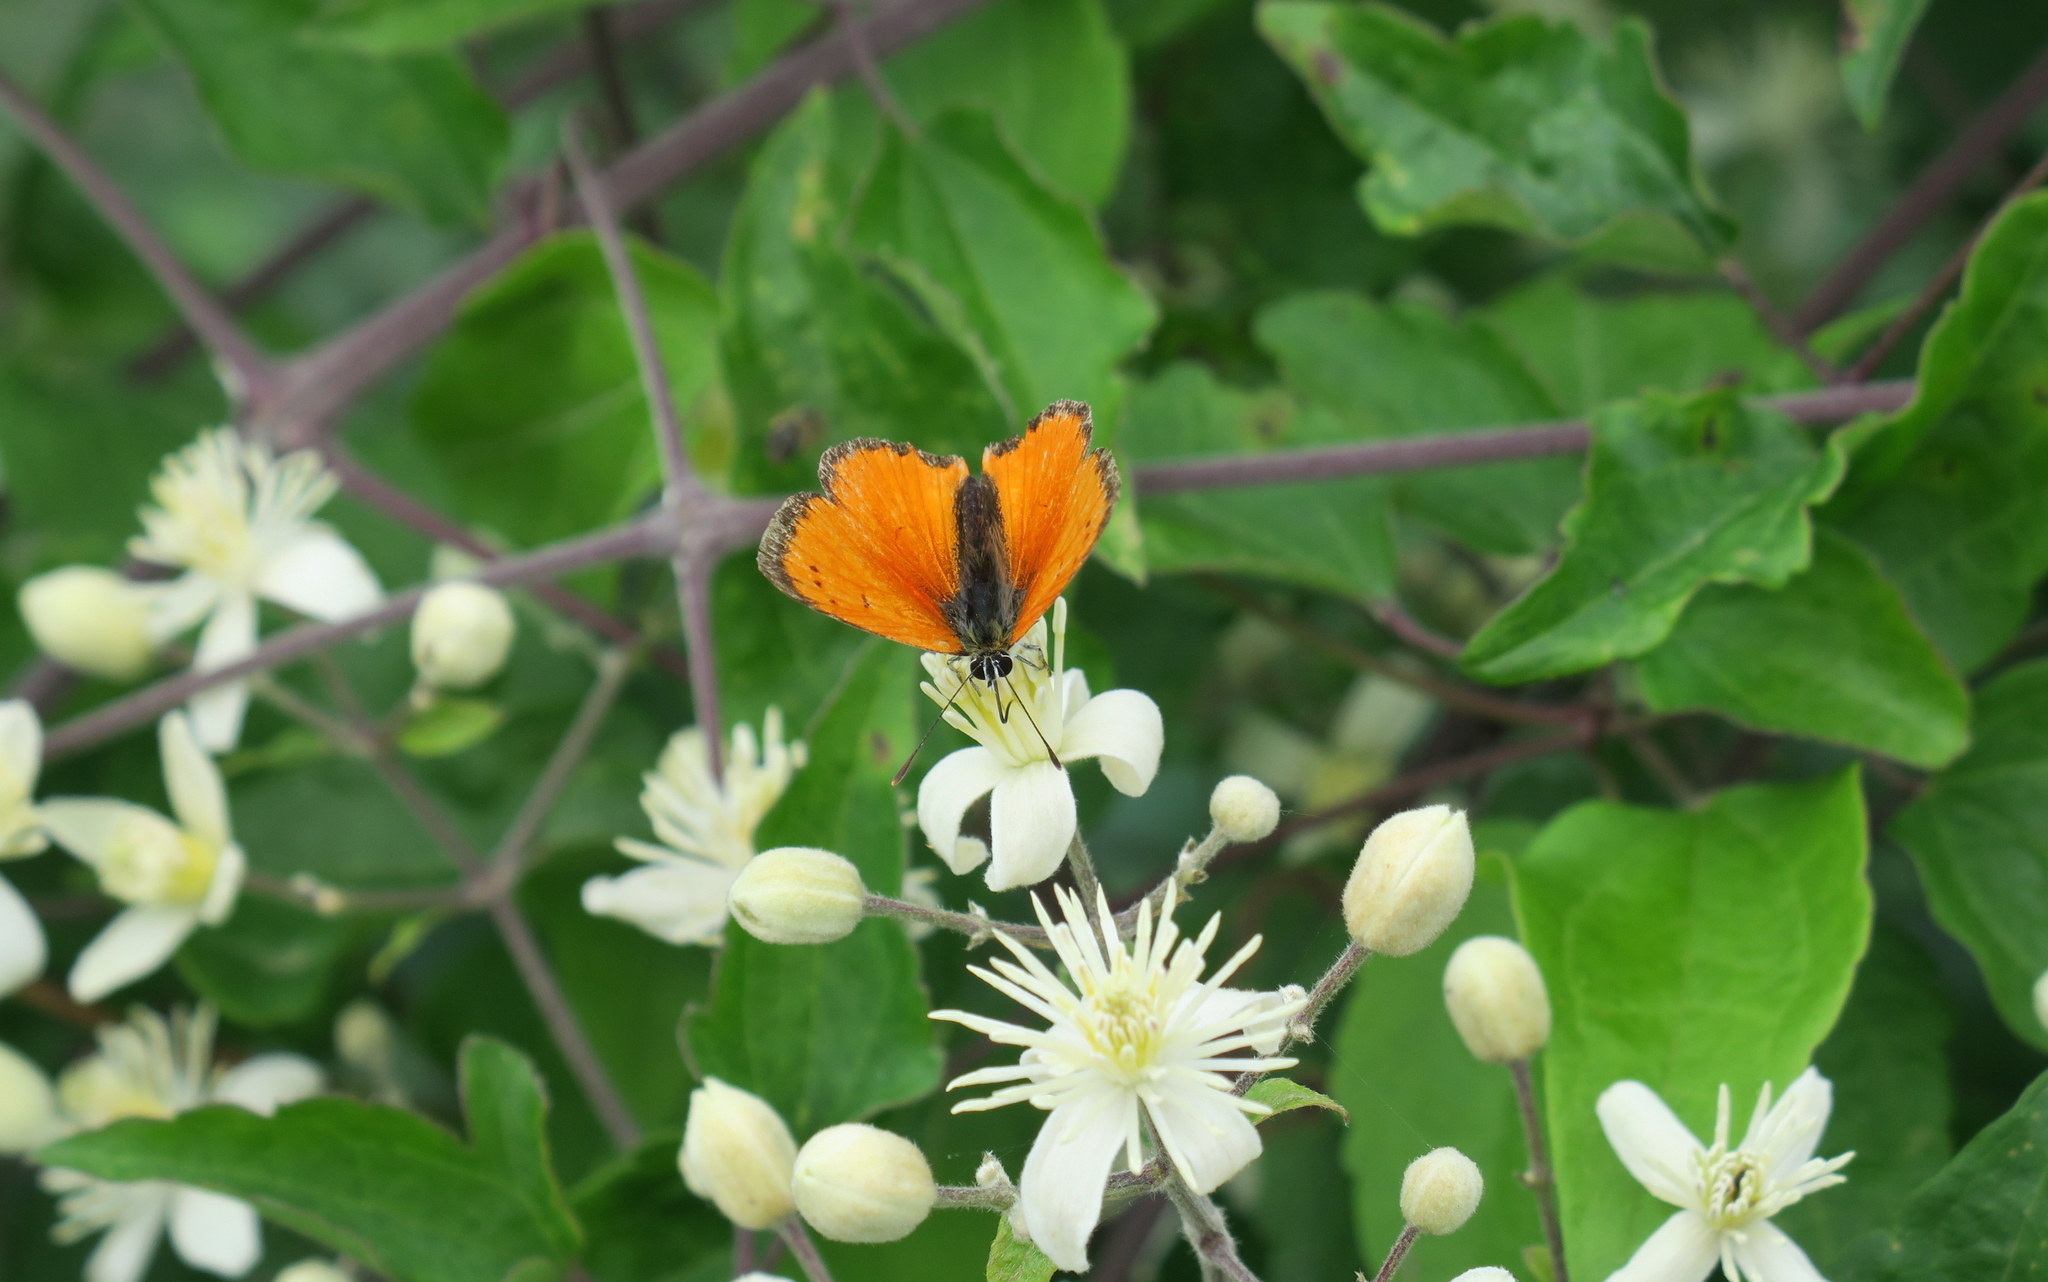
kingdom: Animalia
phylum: Arthropoda
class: Insecta
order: Lepidoptera
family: Lycaenidae
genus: Polyommatus
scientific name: Polyommatus ottomanus
